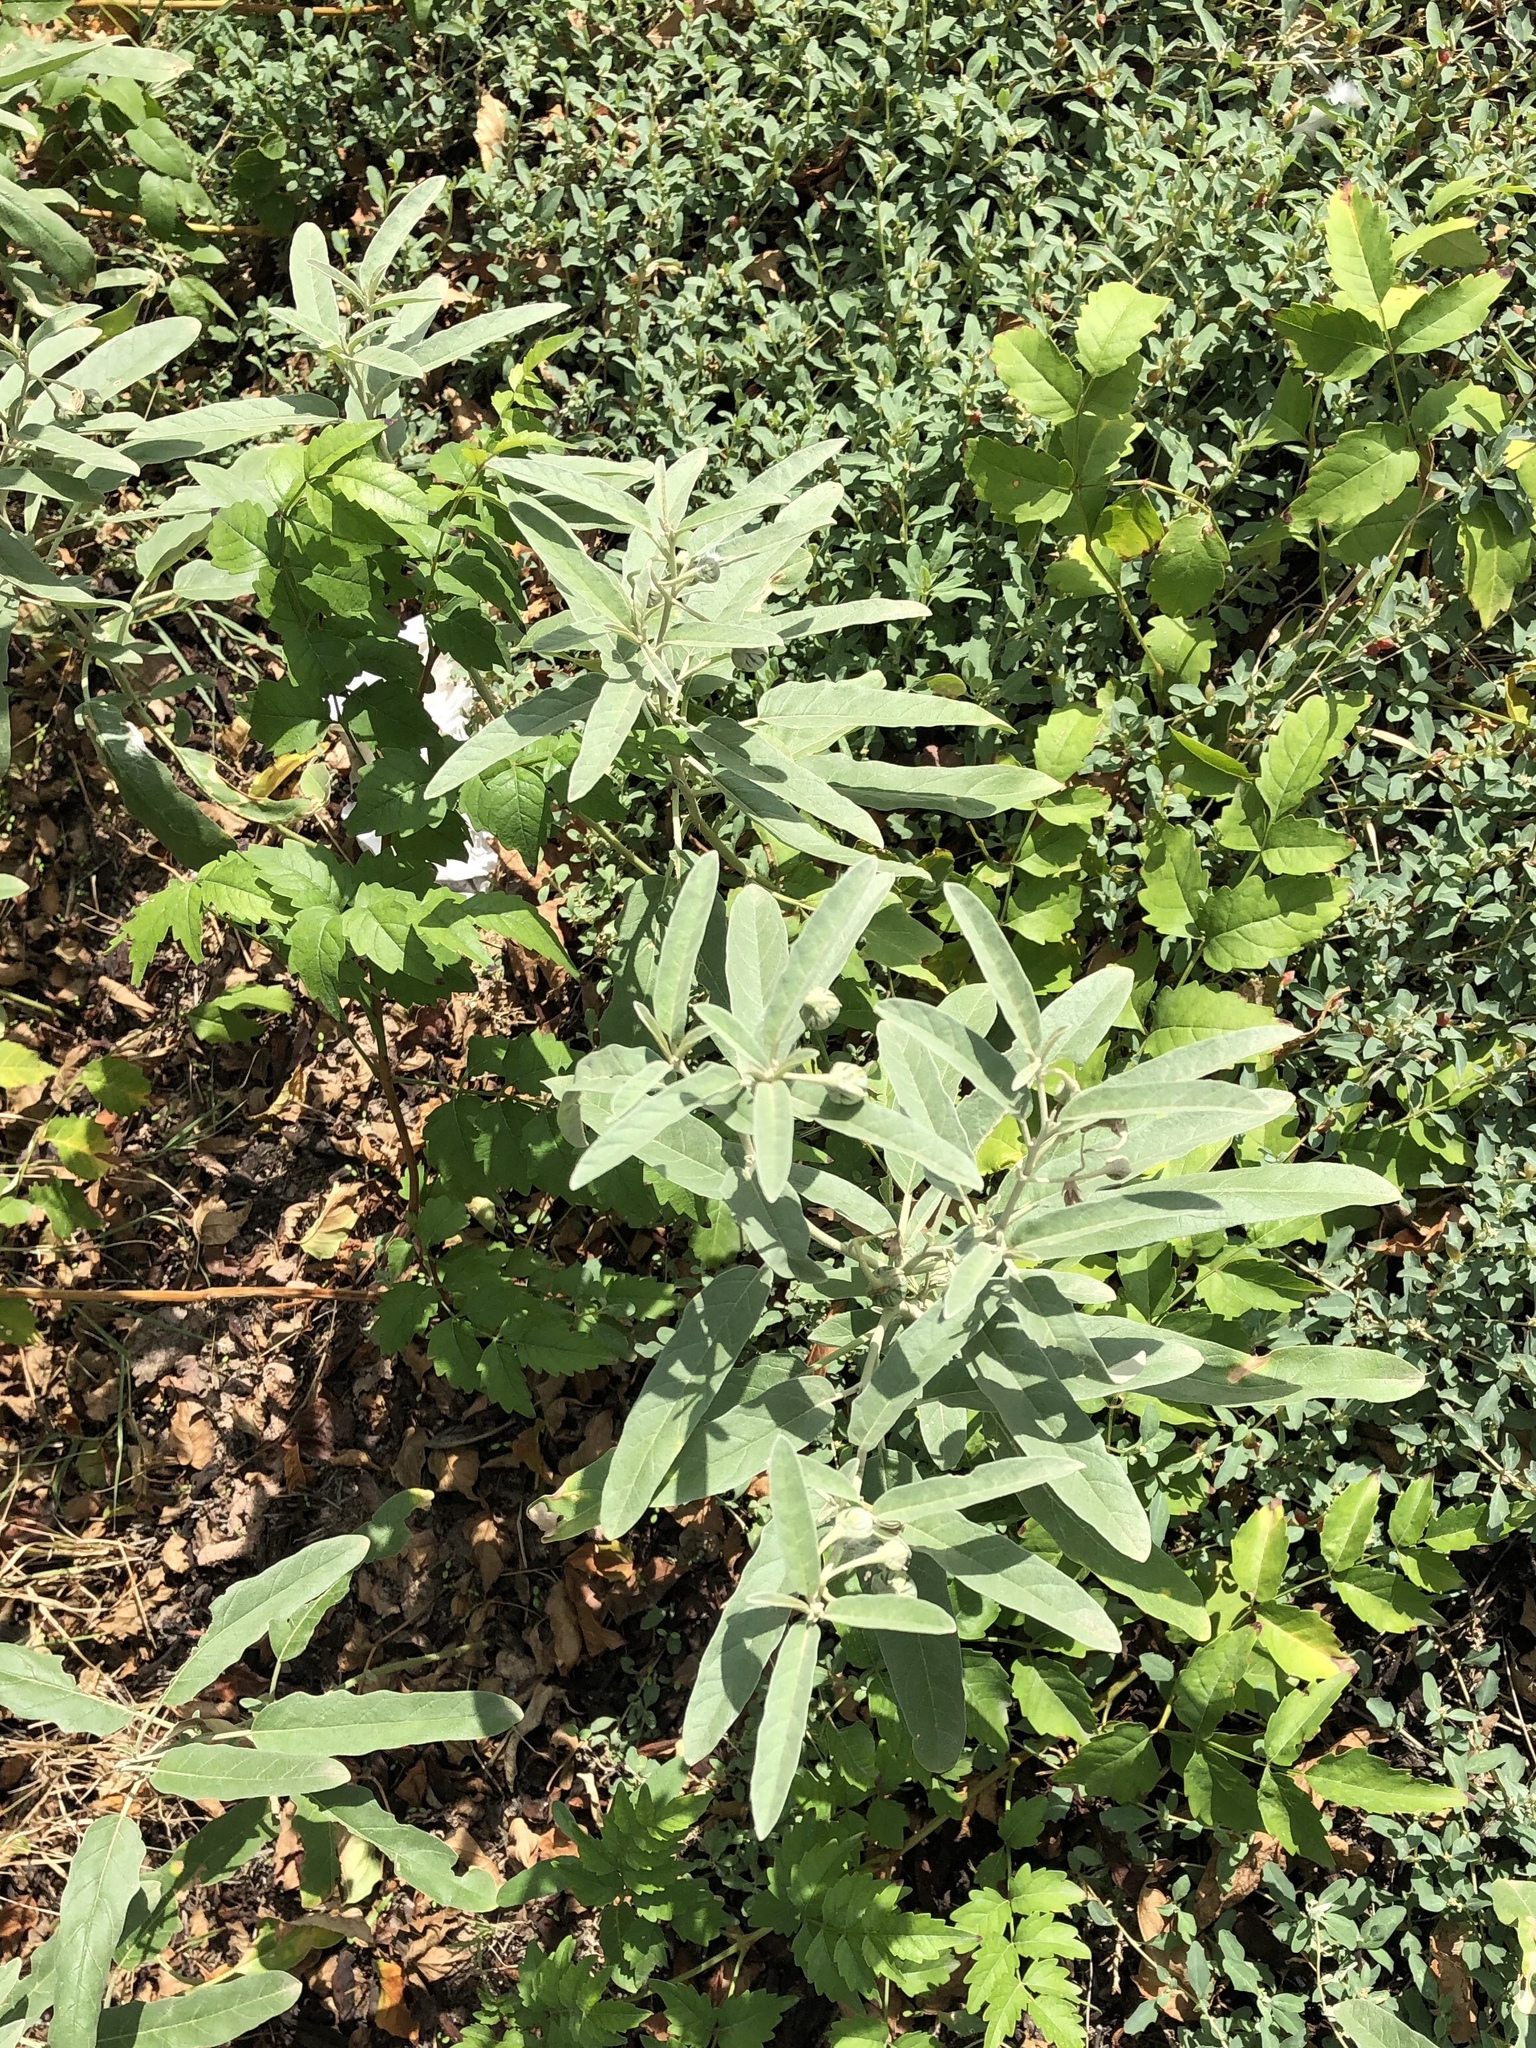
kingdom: Plantae
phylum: Tracheophyta
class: Magnoliopsida
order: Solanales
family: Solanaceae
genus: Solanum
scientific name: Solanum elaeagnifolium
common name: Silverleaf nightshade
